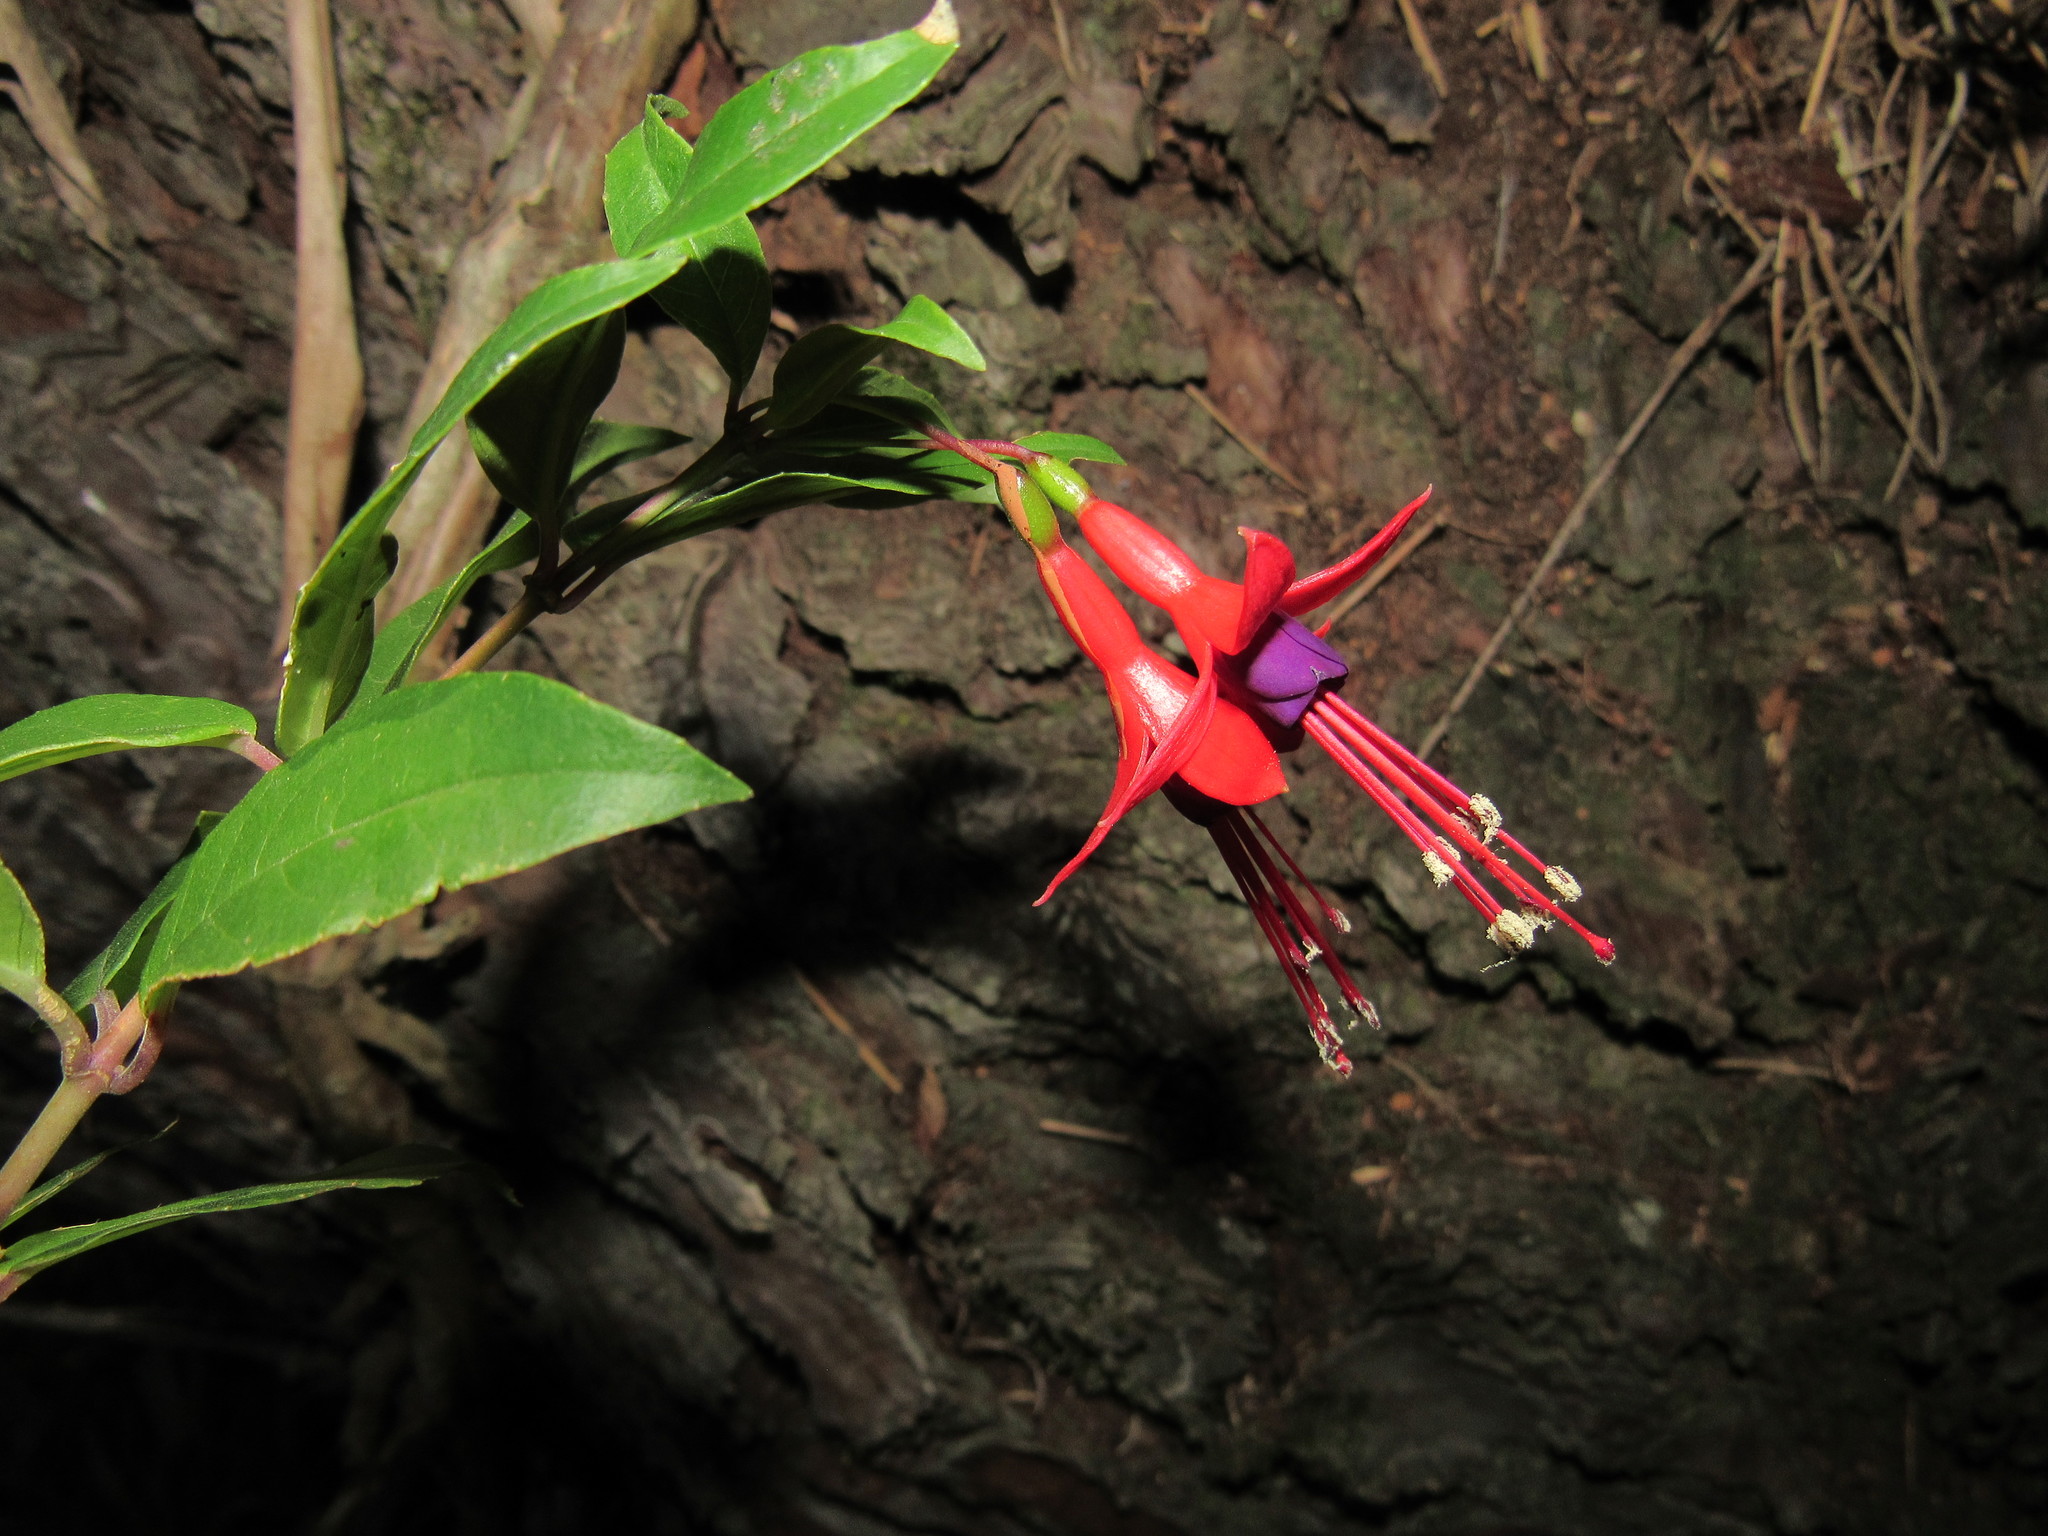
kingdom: Plantae
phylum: Tracheophyta
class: Magnoliopsida
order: Myrtales
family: Onagraceae
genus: Fuchsia
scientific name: Fuchsia regia
